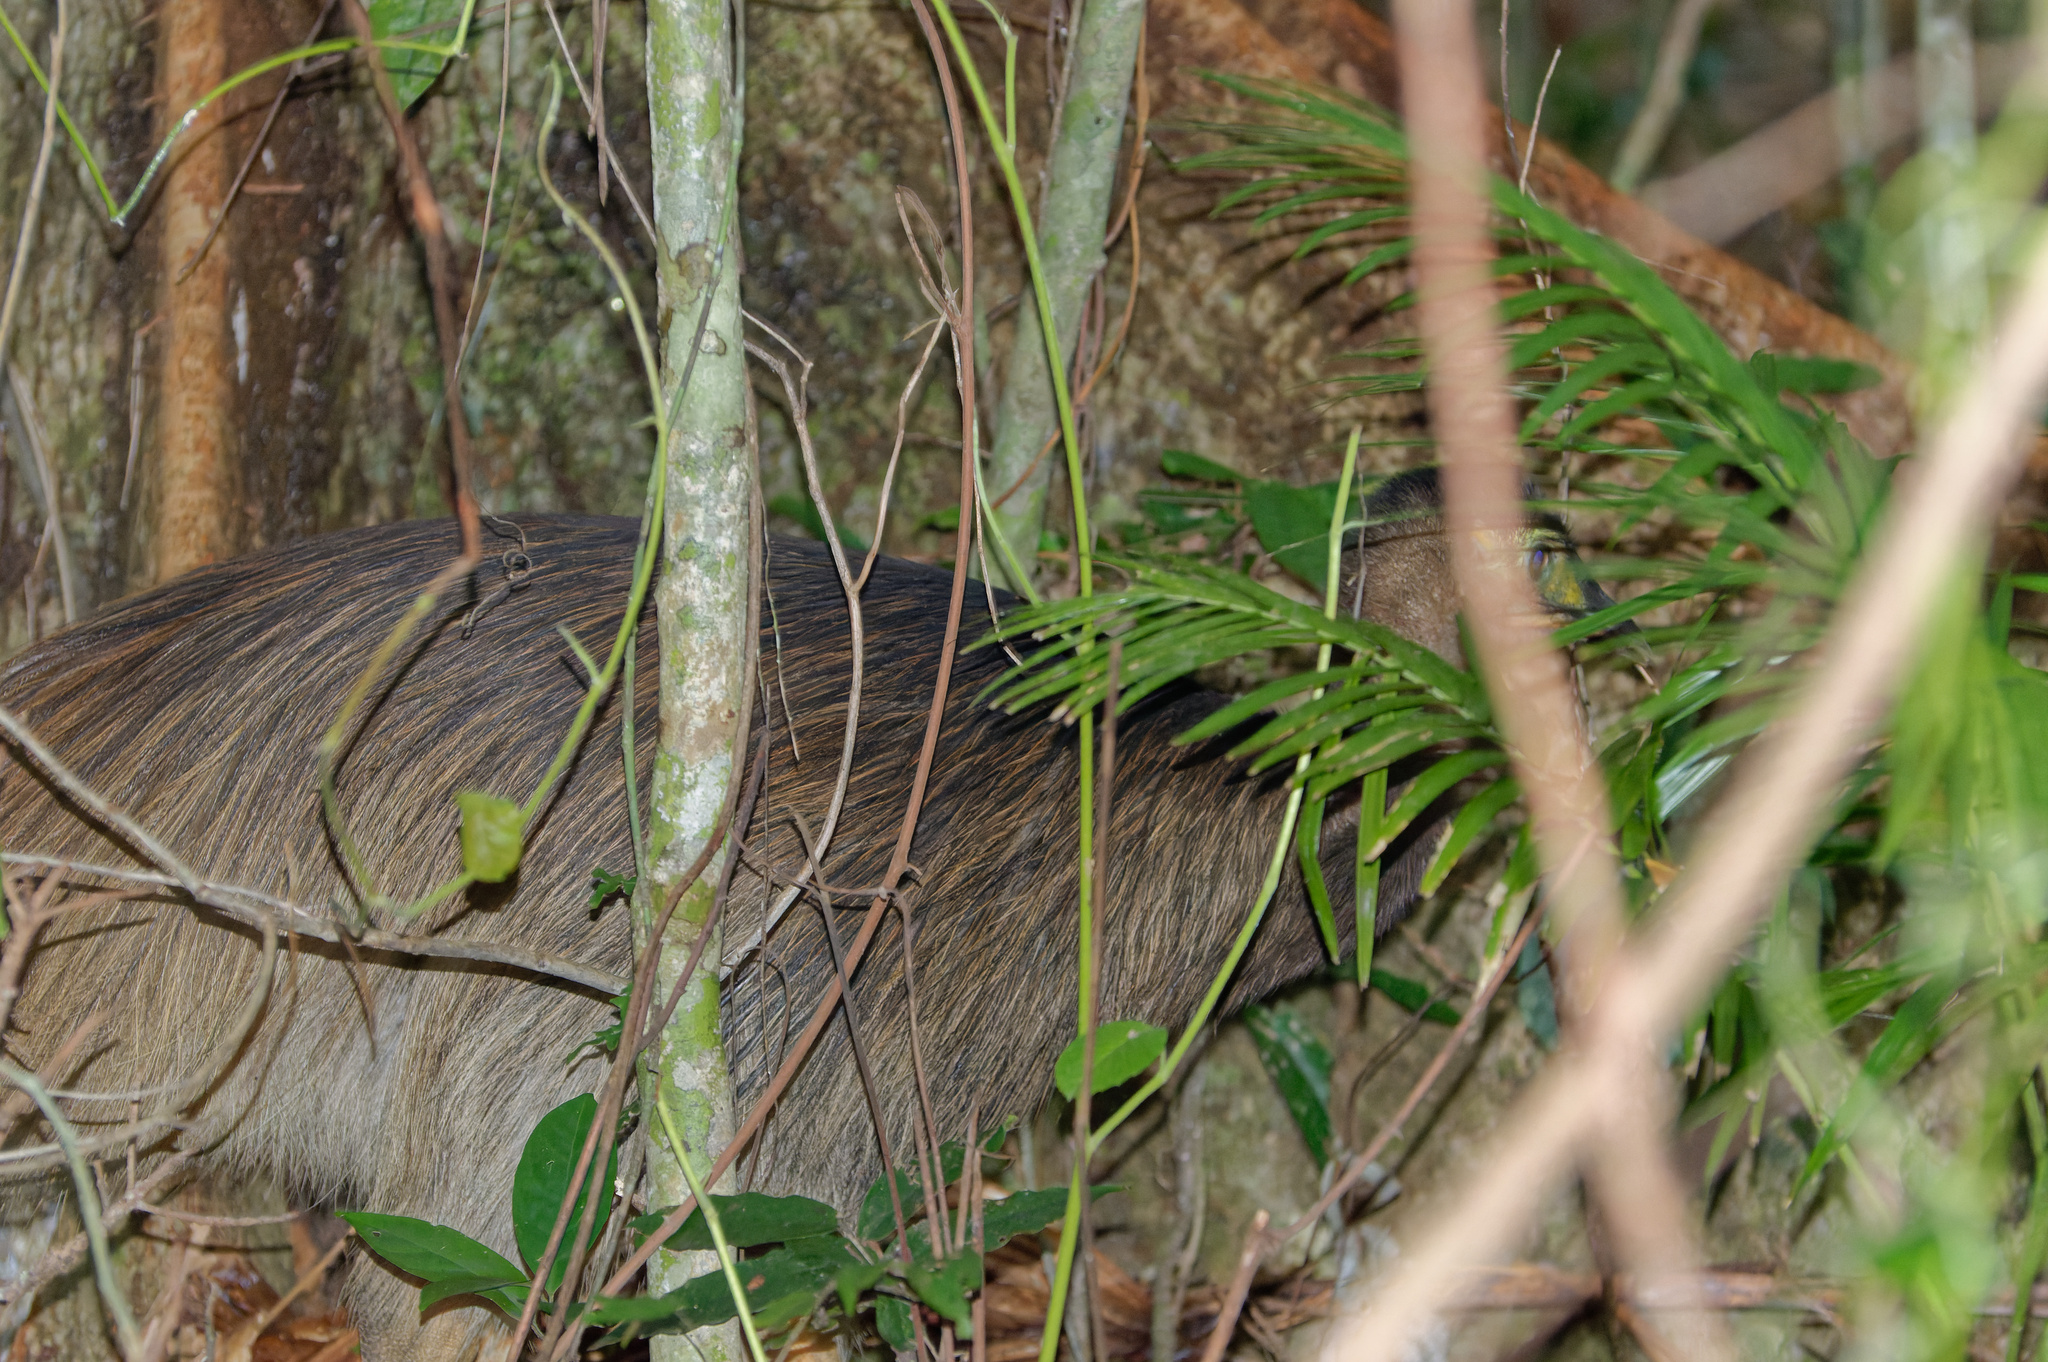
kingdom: Animalia
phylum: Chordata
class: Aves
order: Casuariiformes
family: Casuariidae
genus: Casuarius
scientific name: Casuarius casuarius
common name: Southern cassowary
